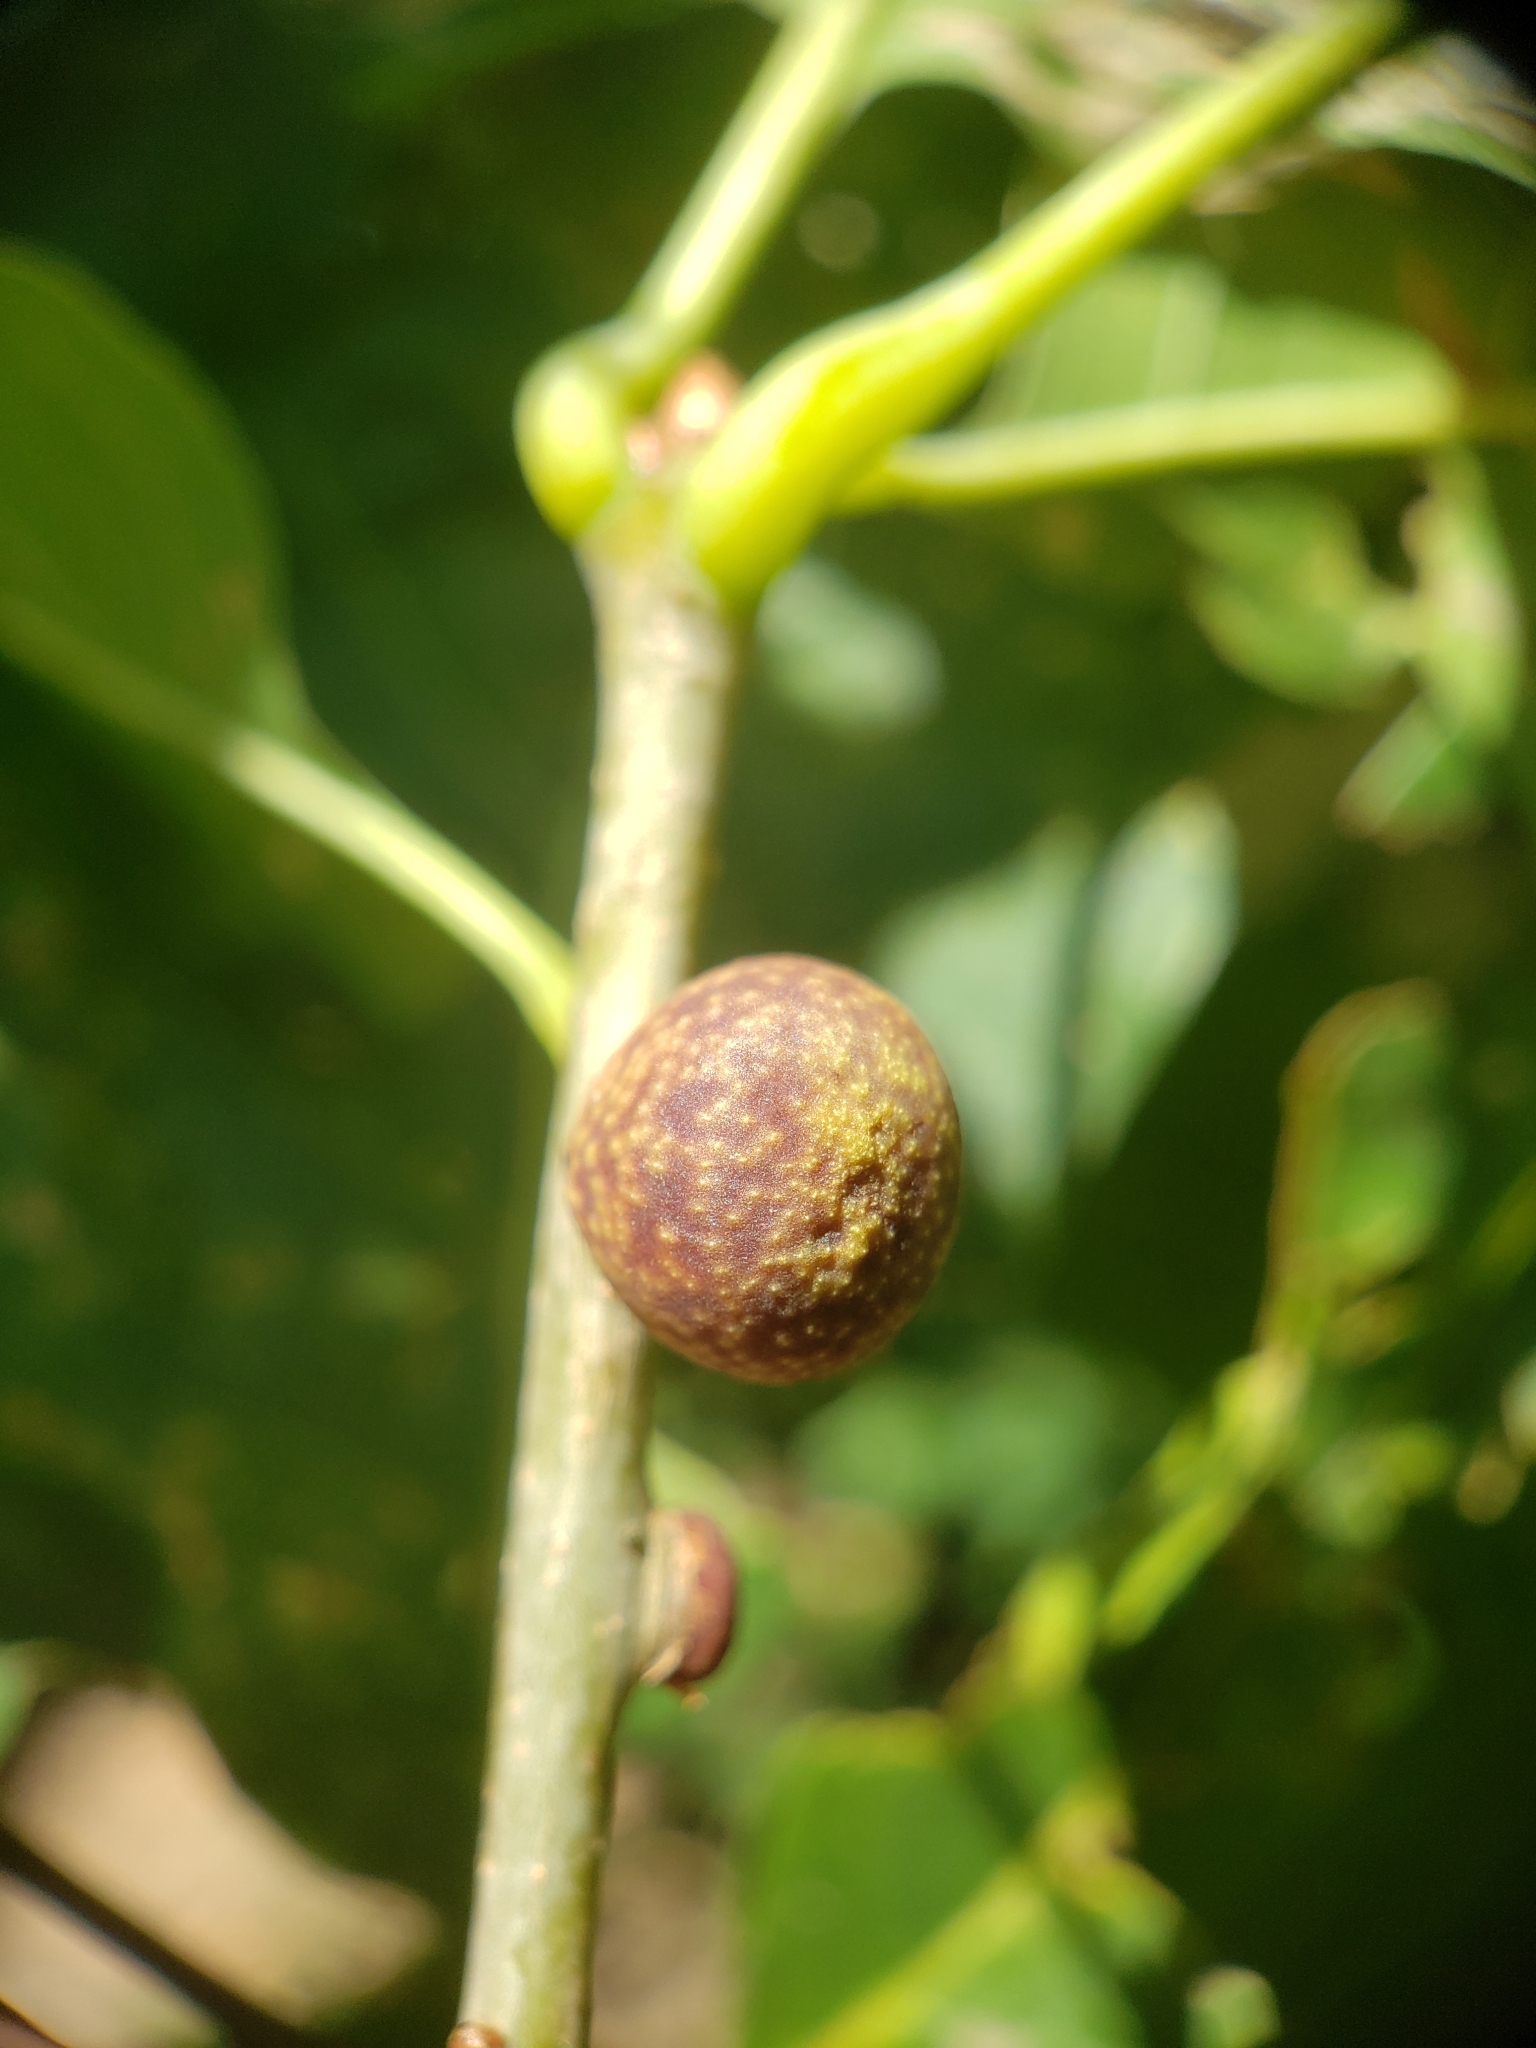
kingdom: Animalia
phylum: Arthropoda
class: Insecta
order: Hymenoptera
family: Cynipidae
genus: Kokkocynips
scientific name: Kokkocynips imbricariae
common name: Banded bullet gall wasp
